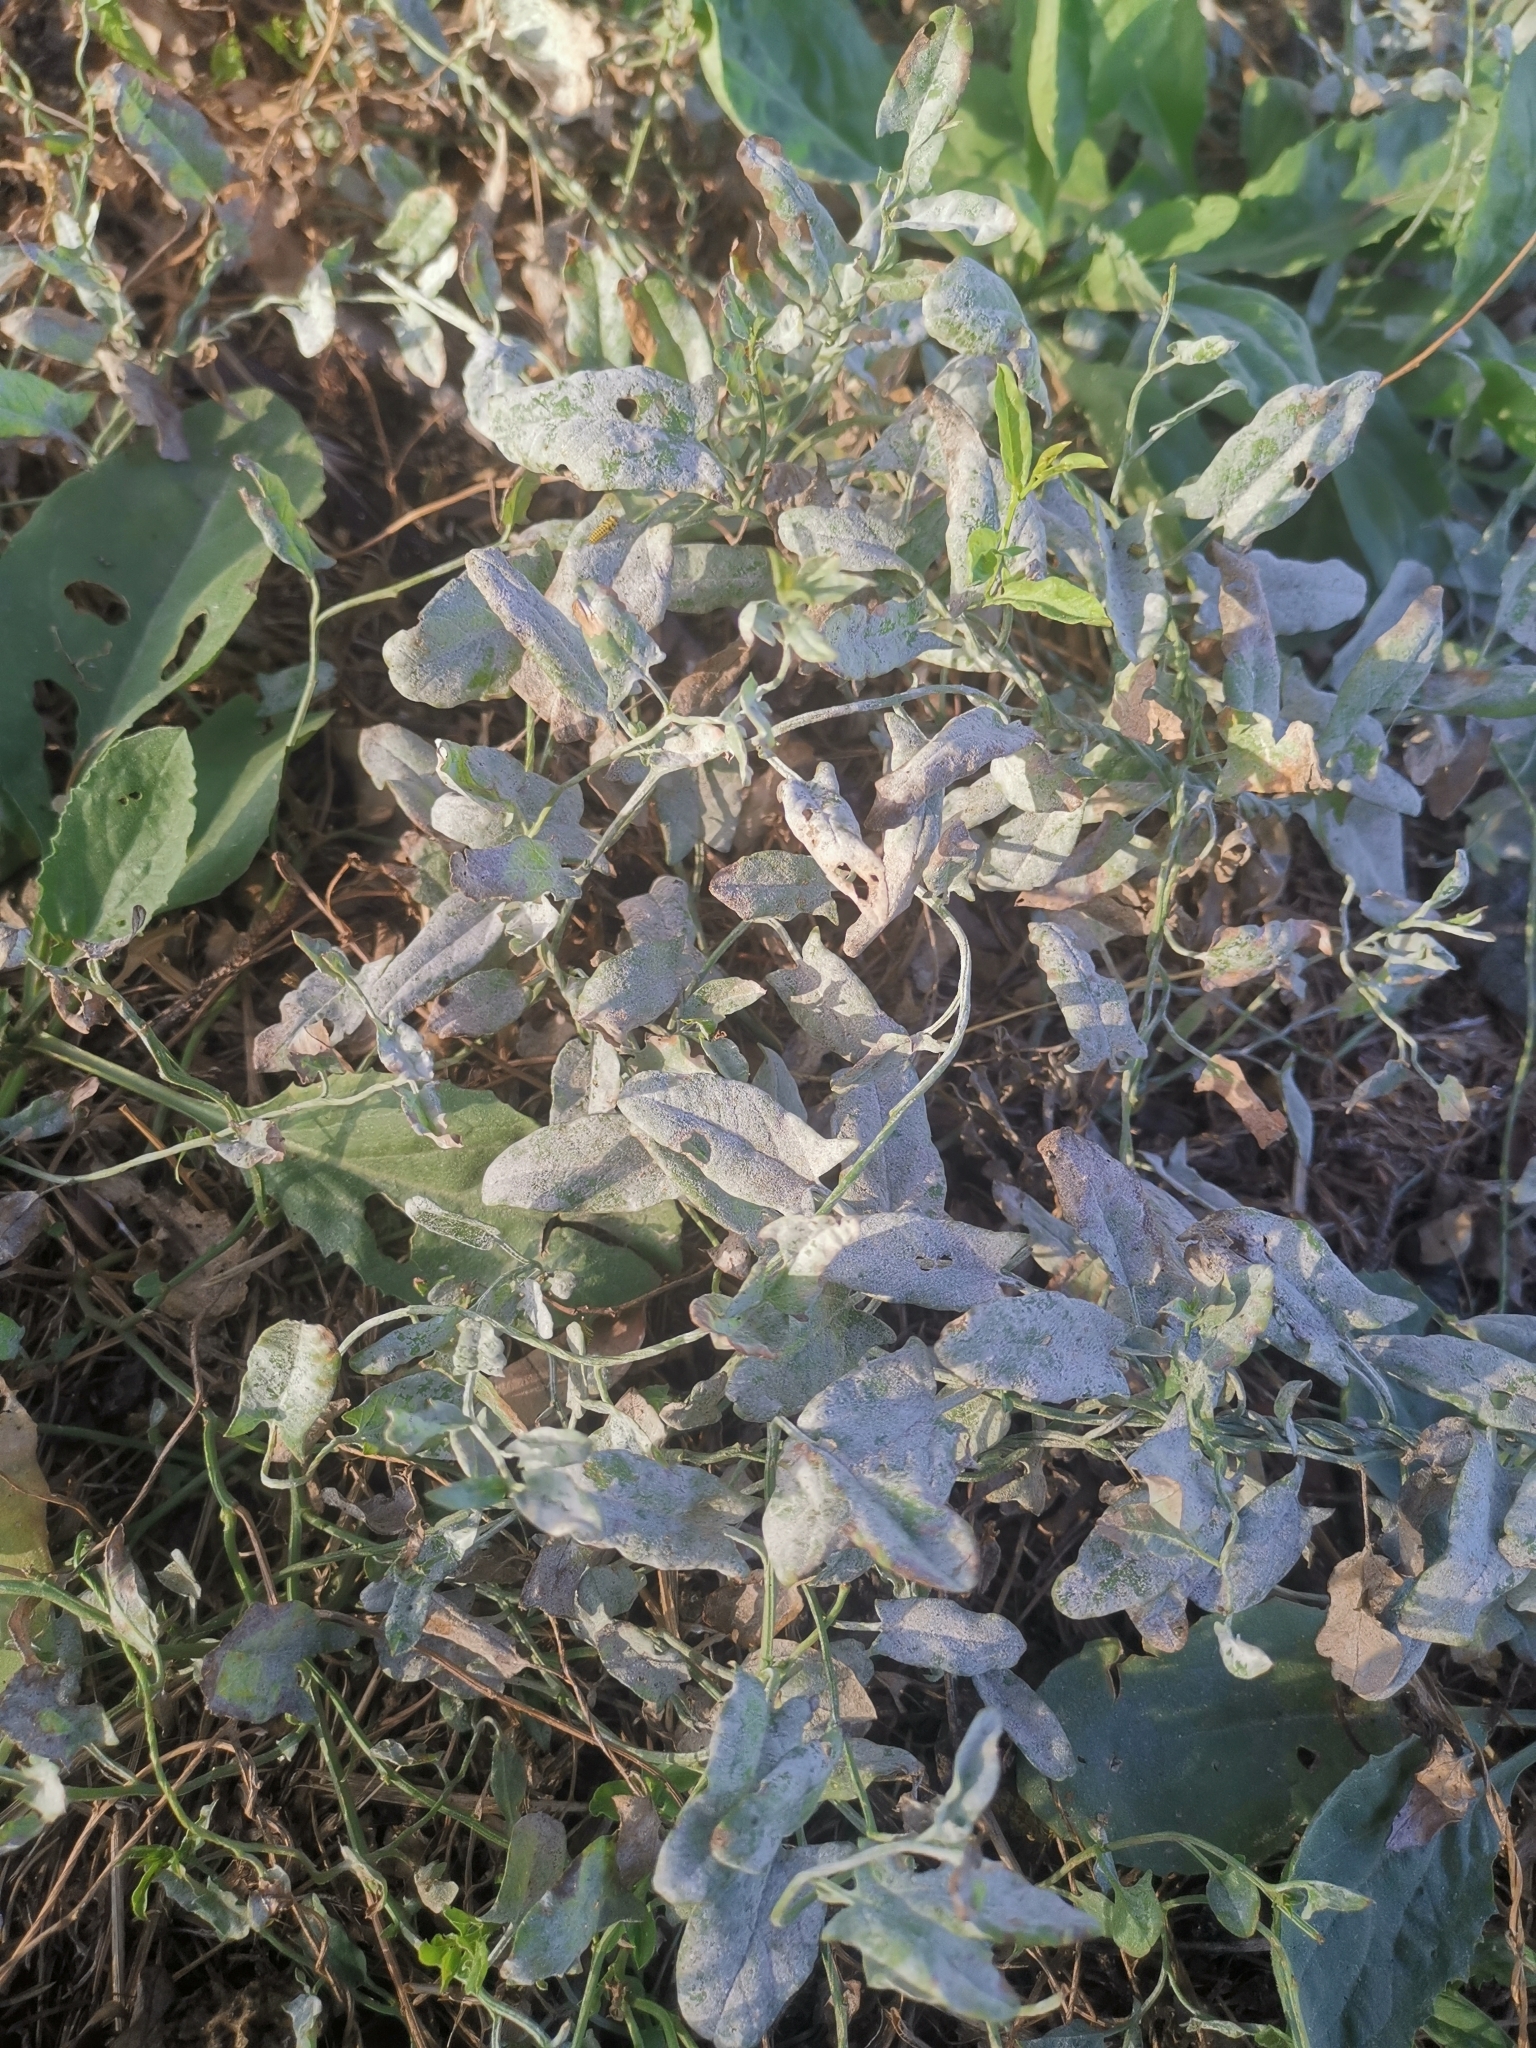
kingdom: Fungi
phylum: Ascomycota
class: Leotiomycetes
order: Helotiales
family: Erysiphaceae
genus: Erysiphe
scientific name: Erysiphe convolvuli
